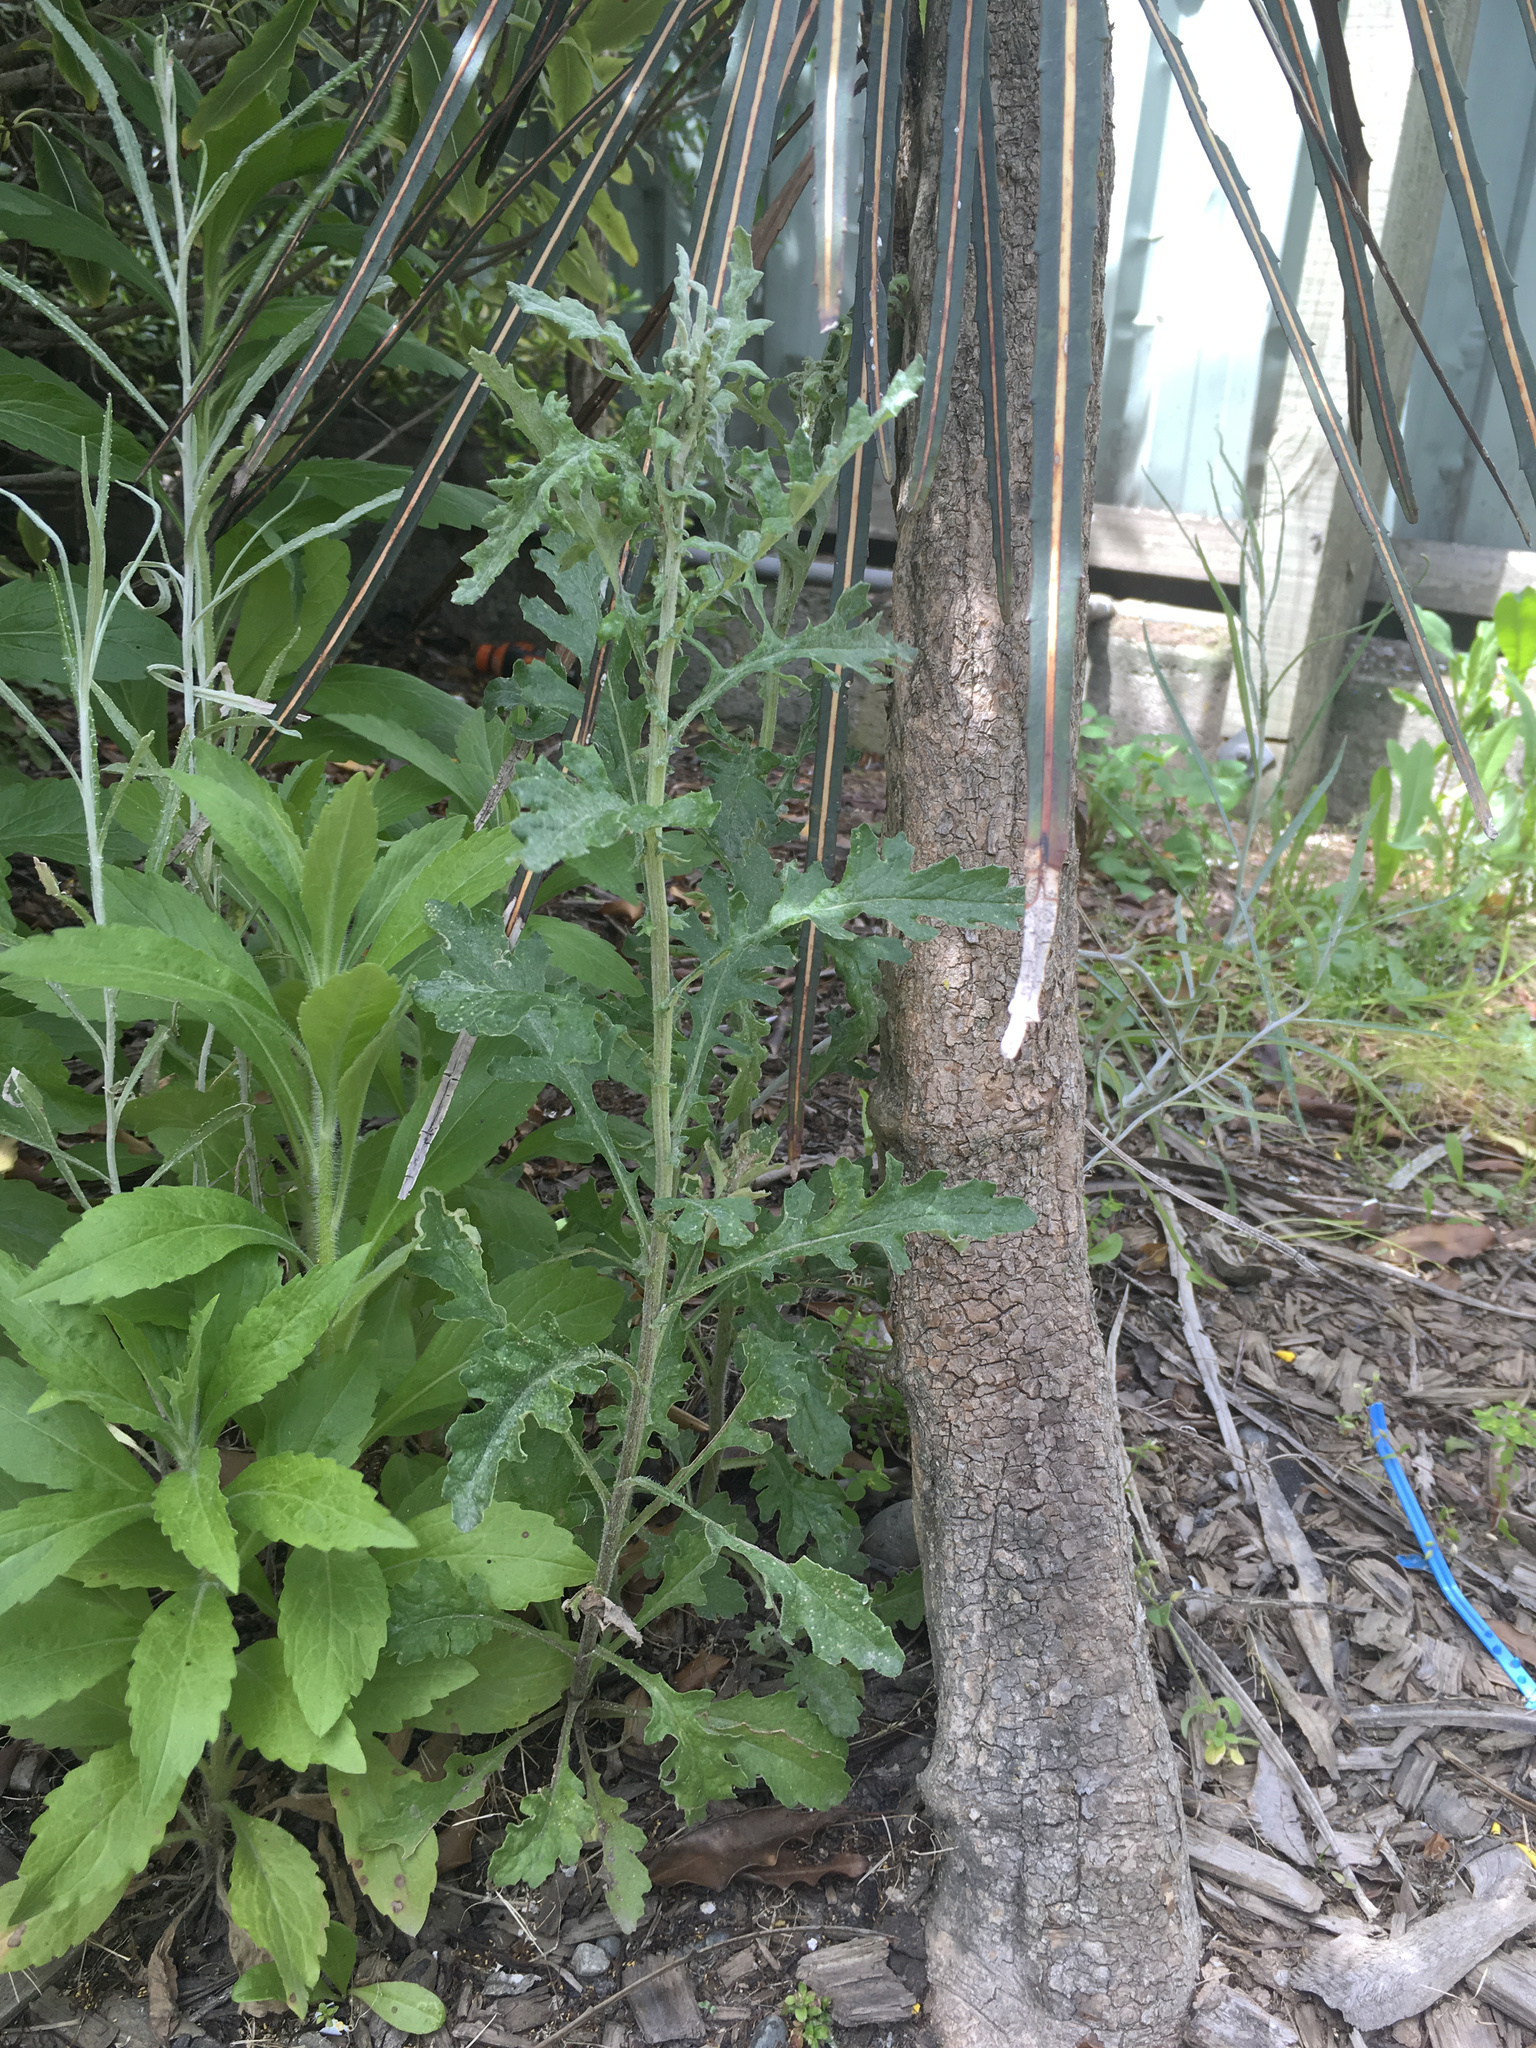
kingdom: Plantae
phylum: Tracheophyta
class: Magnoliopsida
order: Asterales
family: Asteraceae
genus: Senecio
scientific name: Senecio glomeratus
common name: Cutleaf burnweed
